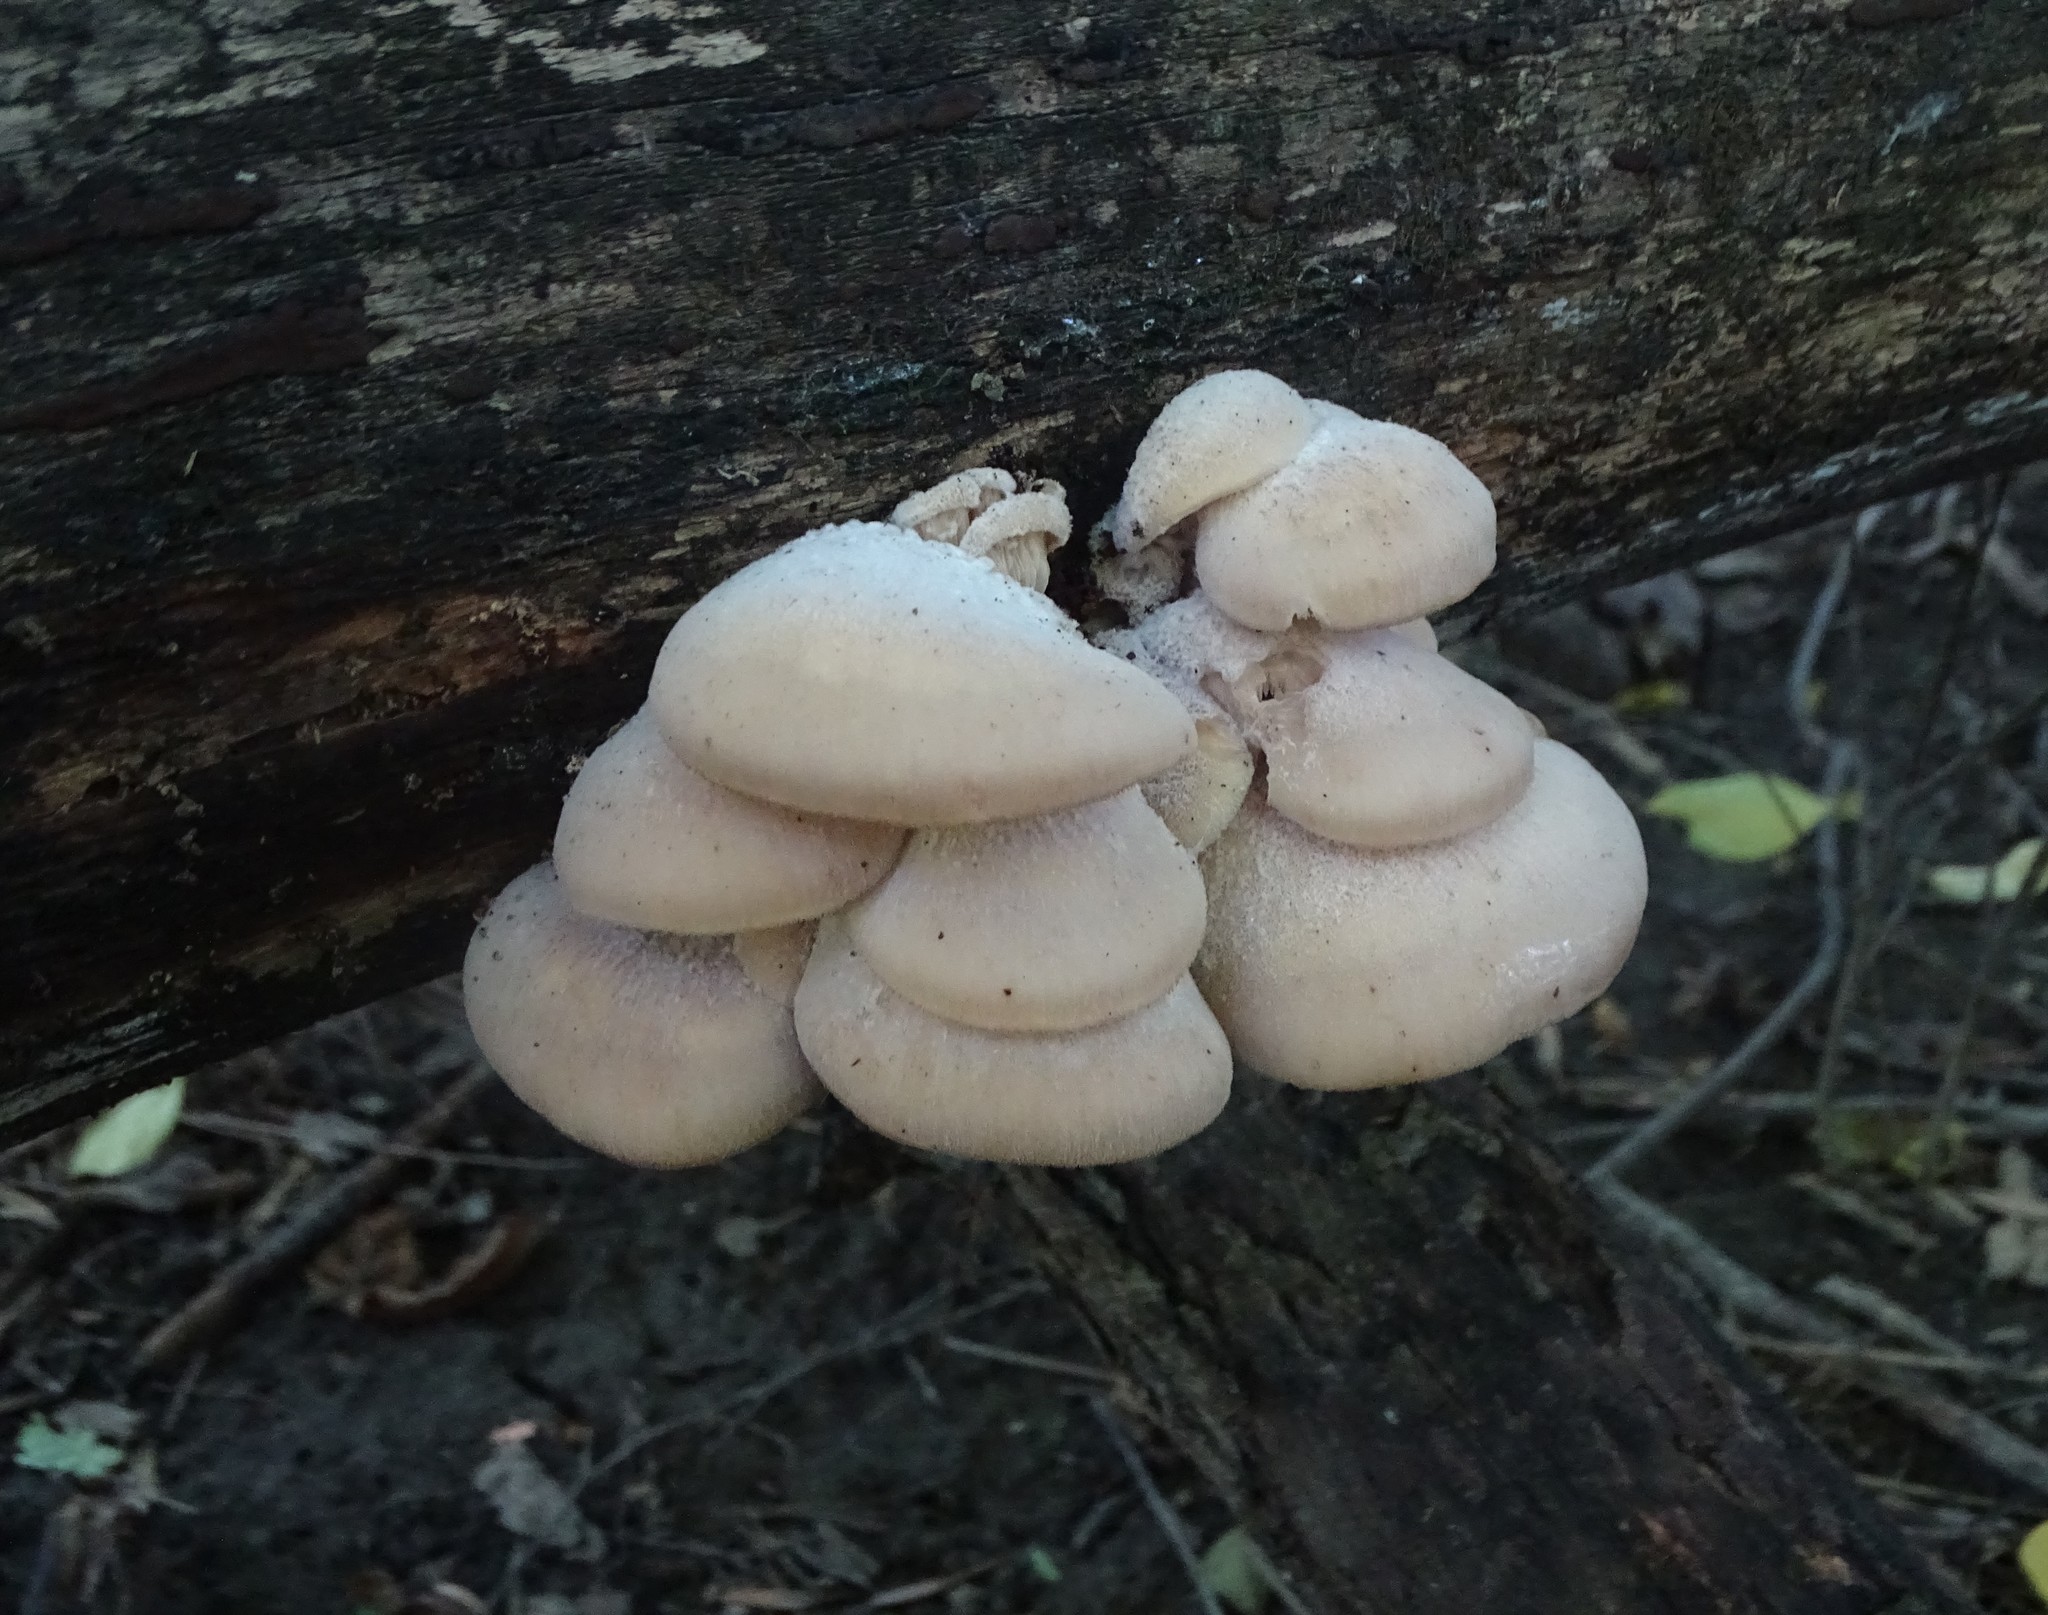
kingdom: Fungi
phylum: Basidiomycota
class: Agaricomycetes
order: Russulales
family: Auriscalpiaceae
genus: Lentinellus
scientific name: Lentinellus ursinus
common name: Bear lentinus
